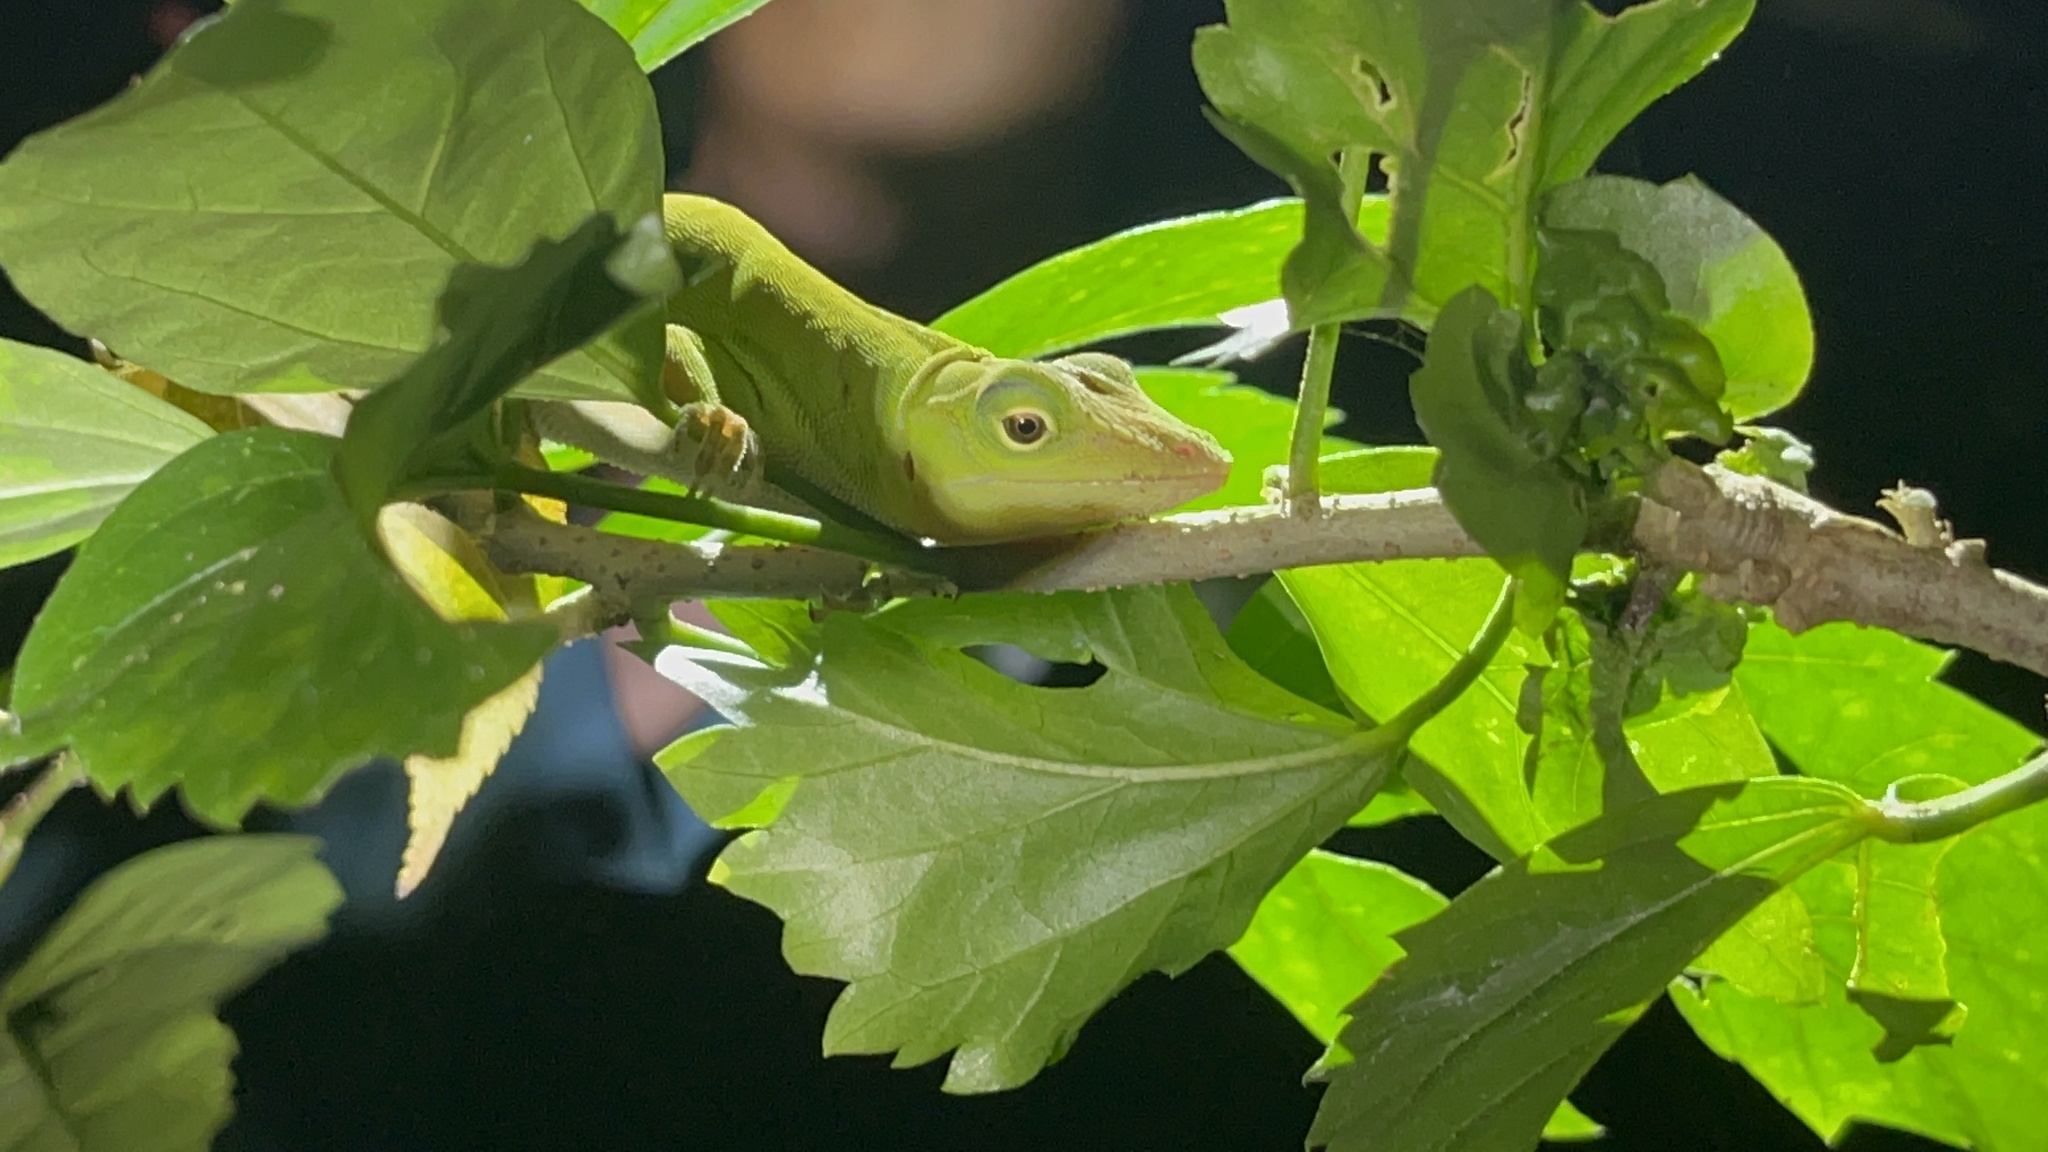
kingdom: Animalia
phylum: Chordata
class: Squamata
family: Dactyloidae
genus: Anolis
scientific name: Anolis biporcatus
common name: Giant green anole
